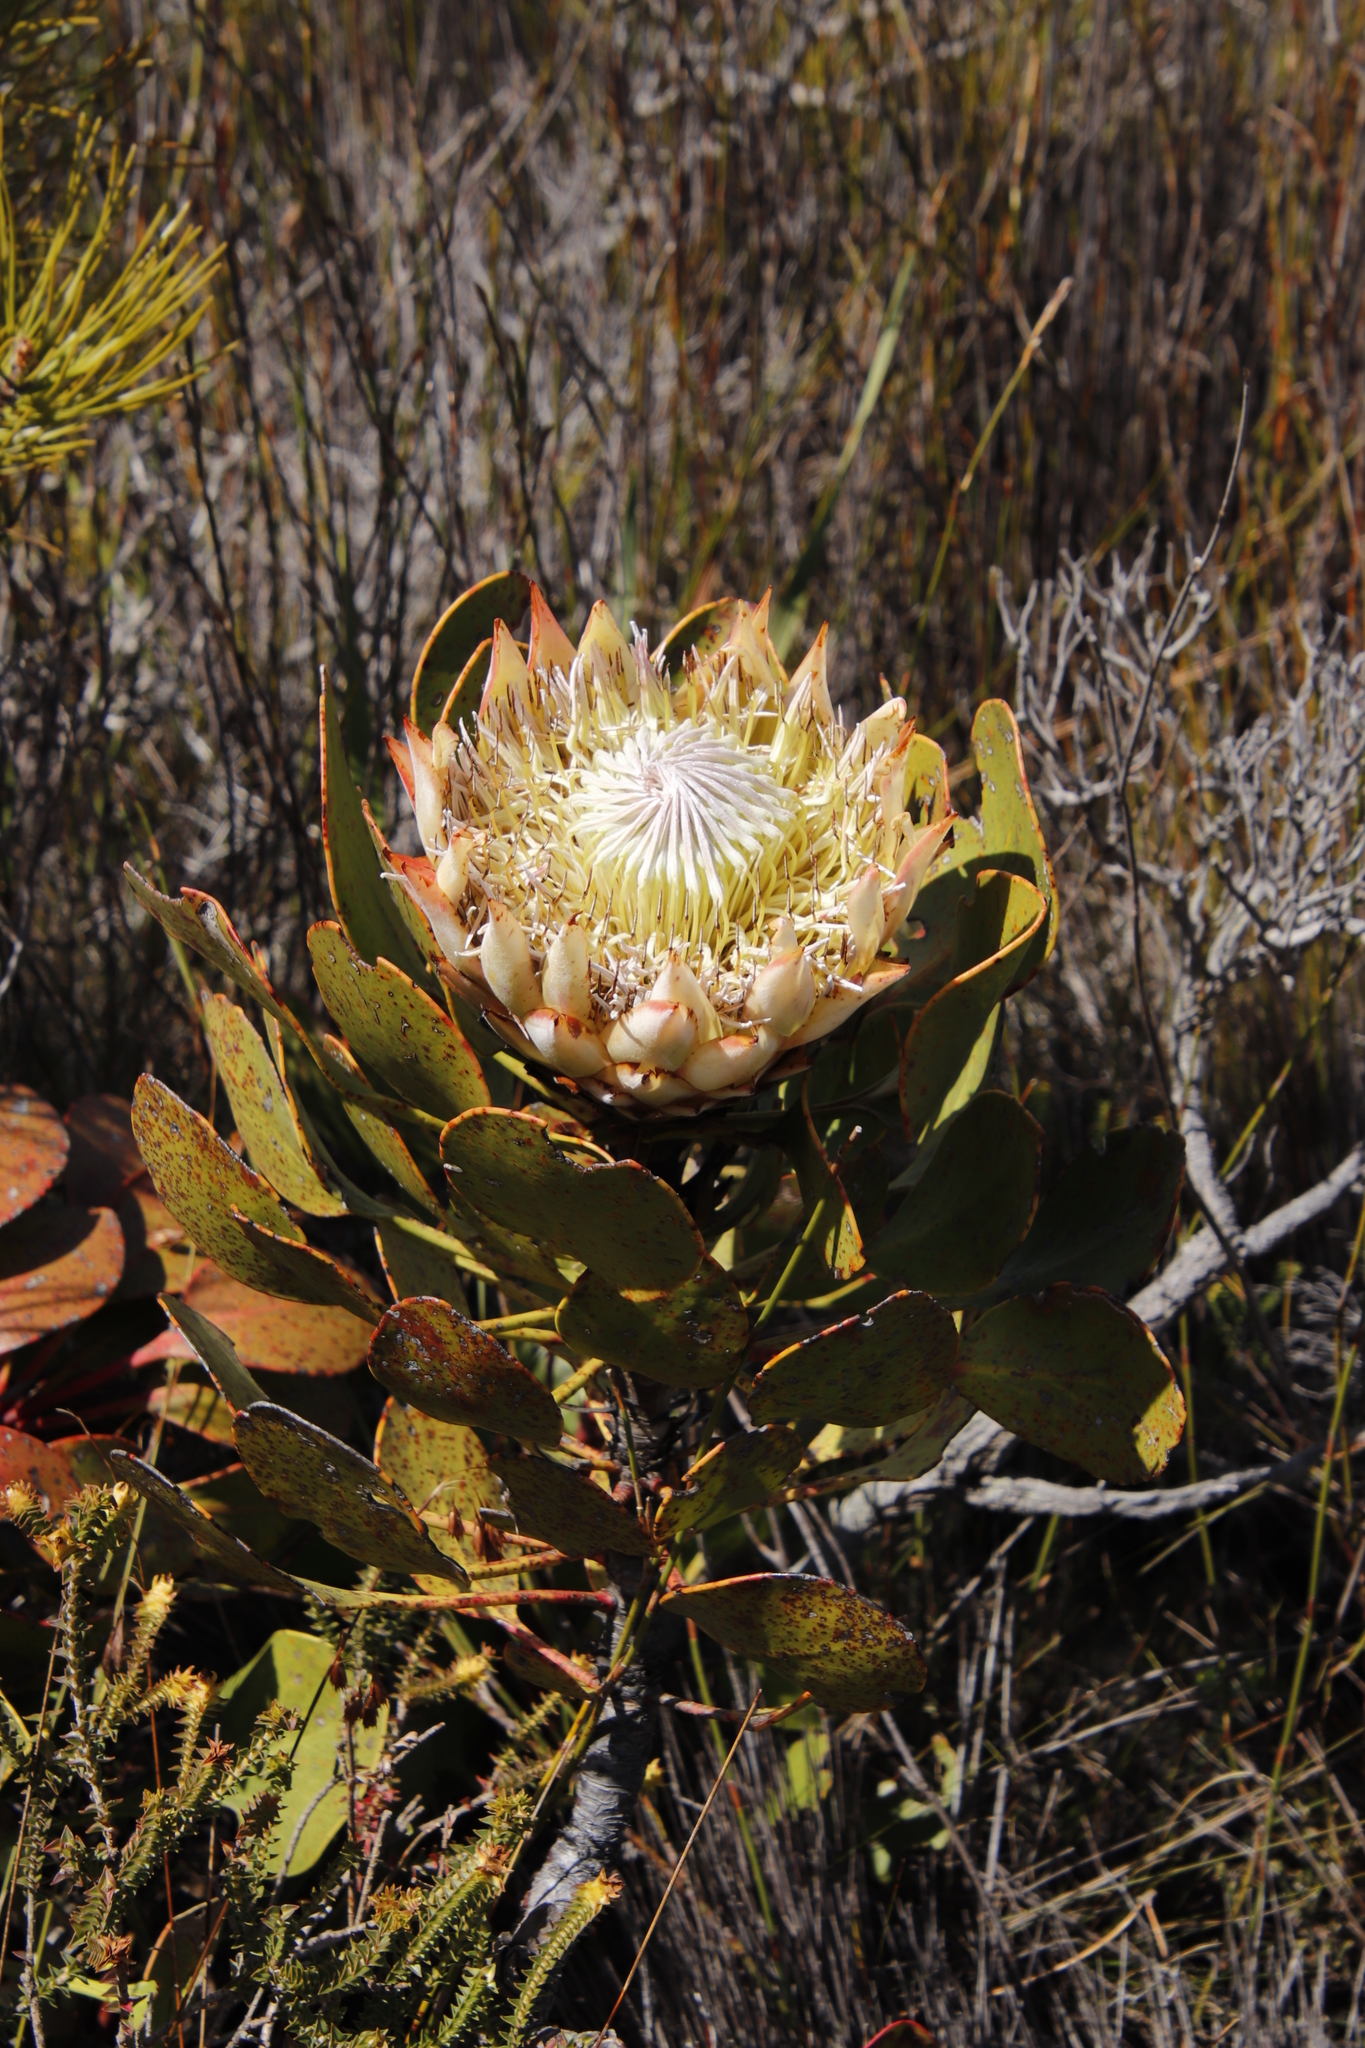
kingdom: Plantae
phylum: Tracheophyta
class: Magnoliopsida
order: Proteales
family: Proteaceae
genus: Protea
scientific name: Protea cynaroides
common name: King protea
